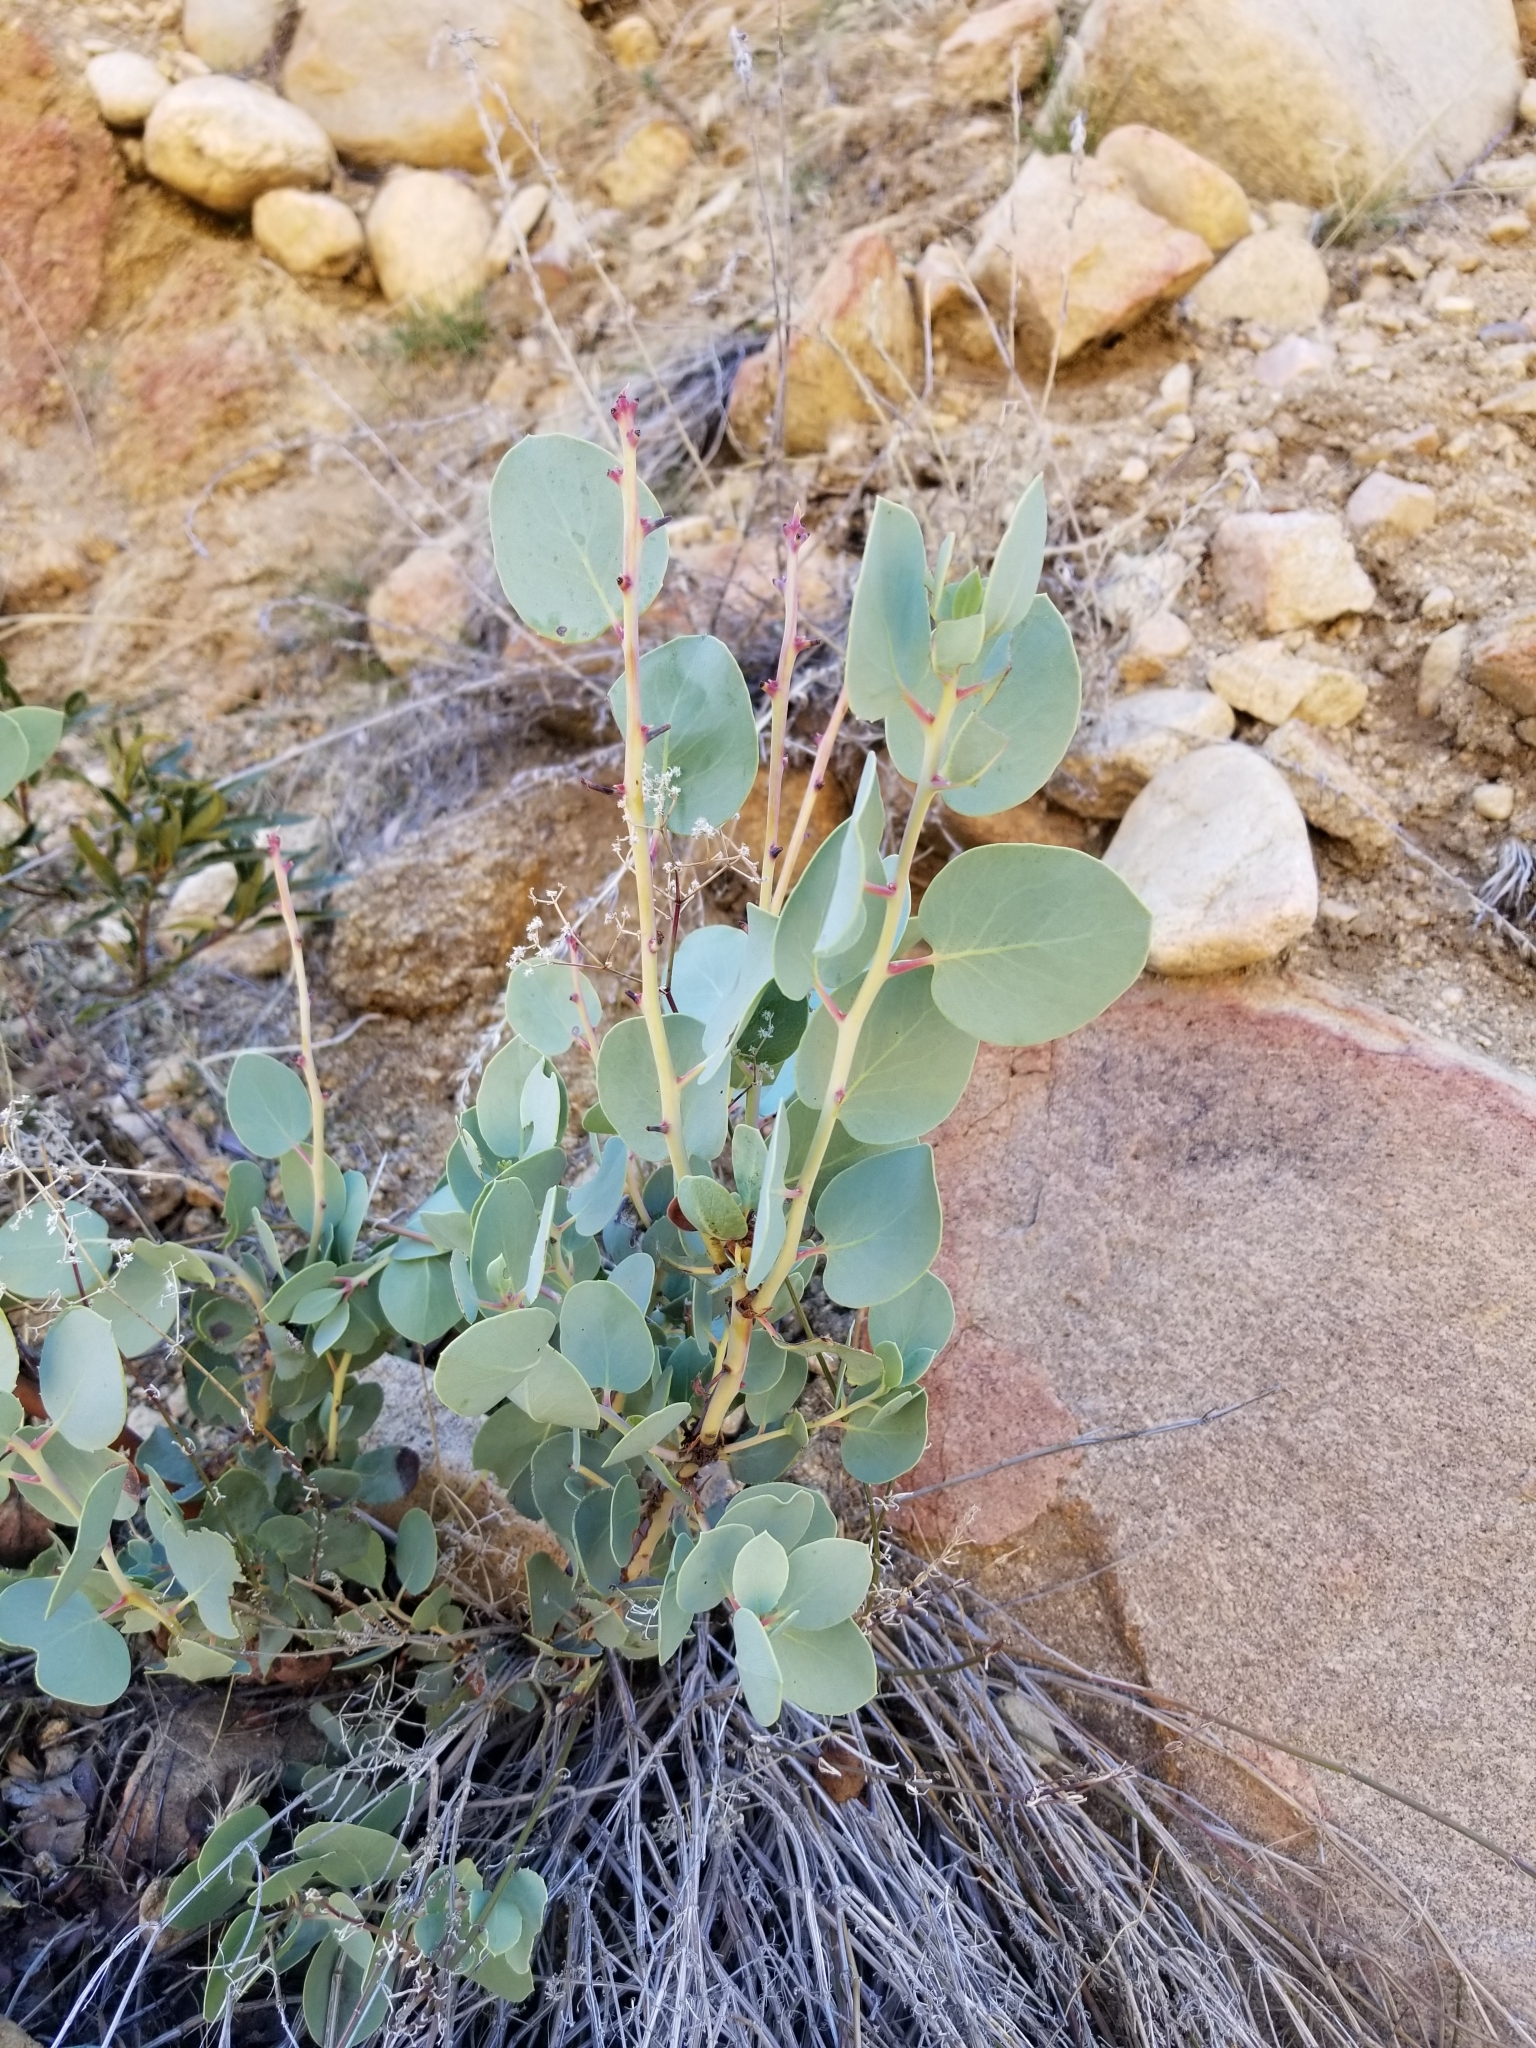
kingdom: Plantae
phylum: Tracheophyta
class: Magnoliopsida
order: Ericales
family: Ericaceae
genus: Arctostaphylos
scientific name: Arctostaphylos glauca
